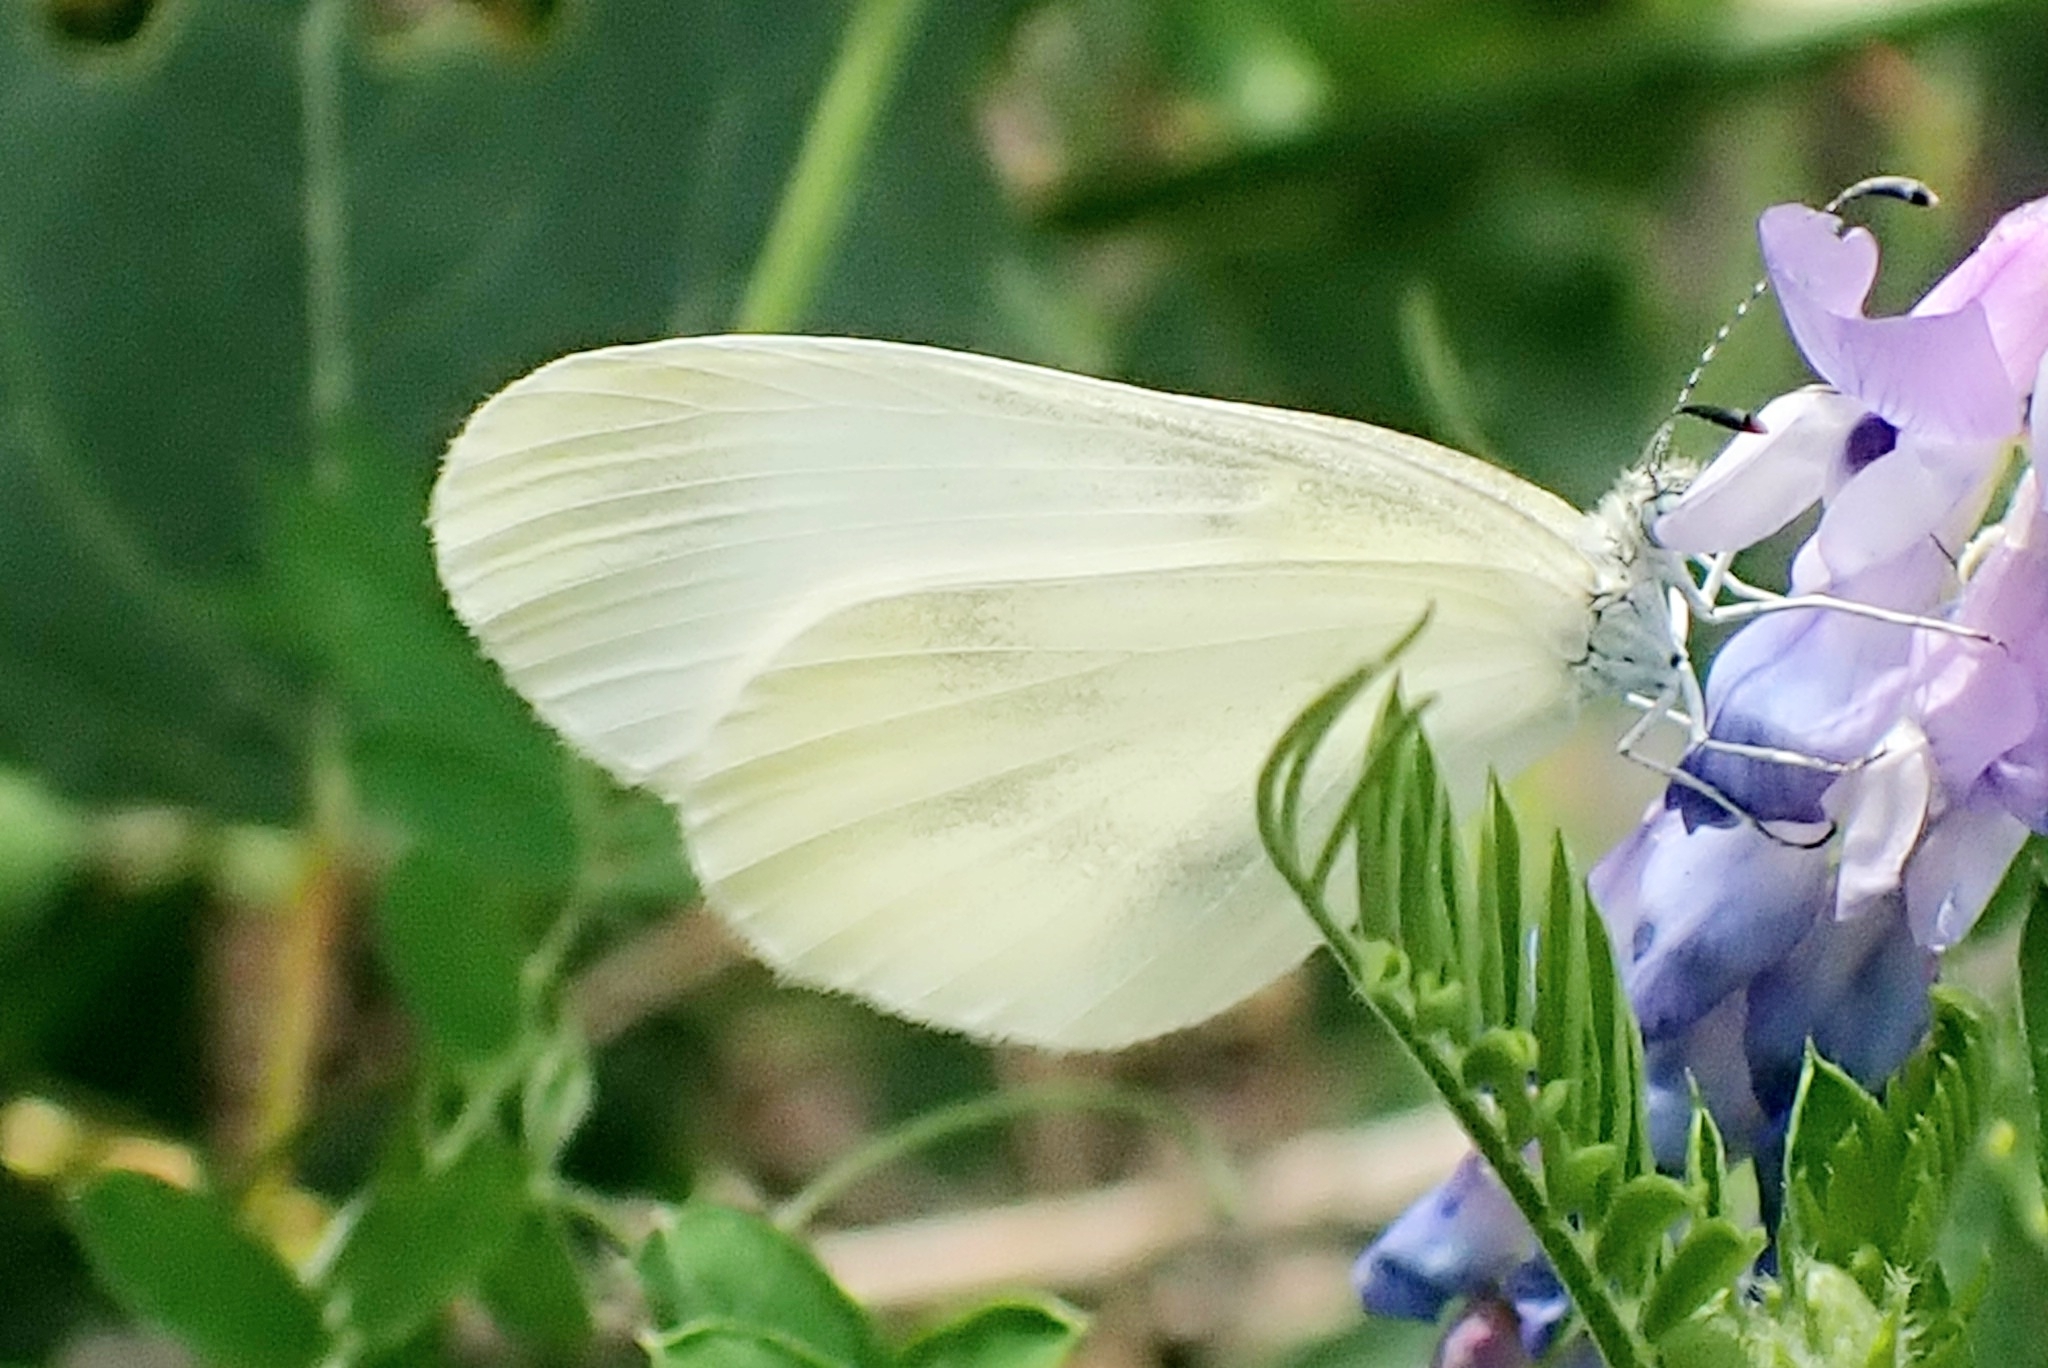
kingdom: Animalia
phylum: Arthropoda
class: Insecta
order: Lepidoptera
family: Pieridae
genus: Leptidea
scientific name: Leptidea sinapis
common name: Wood white
